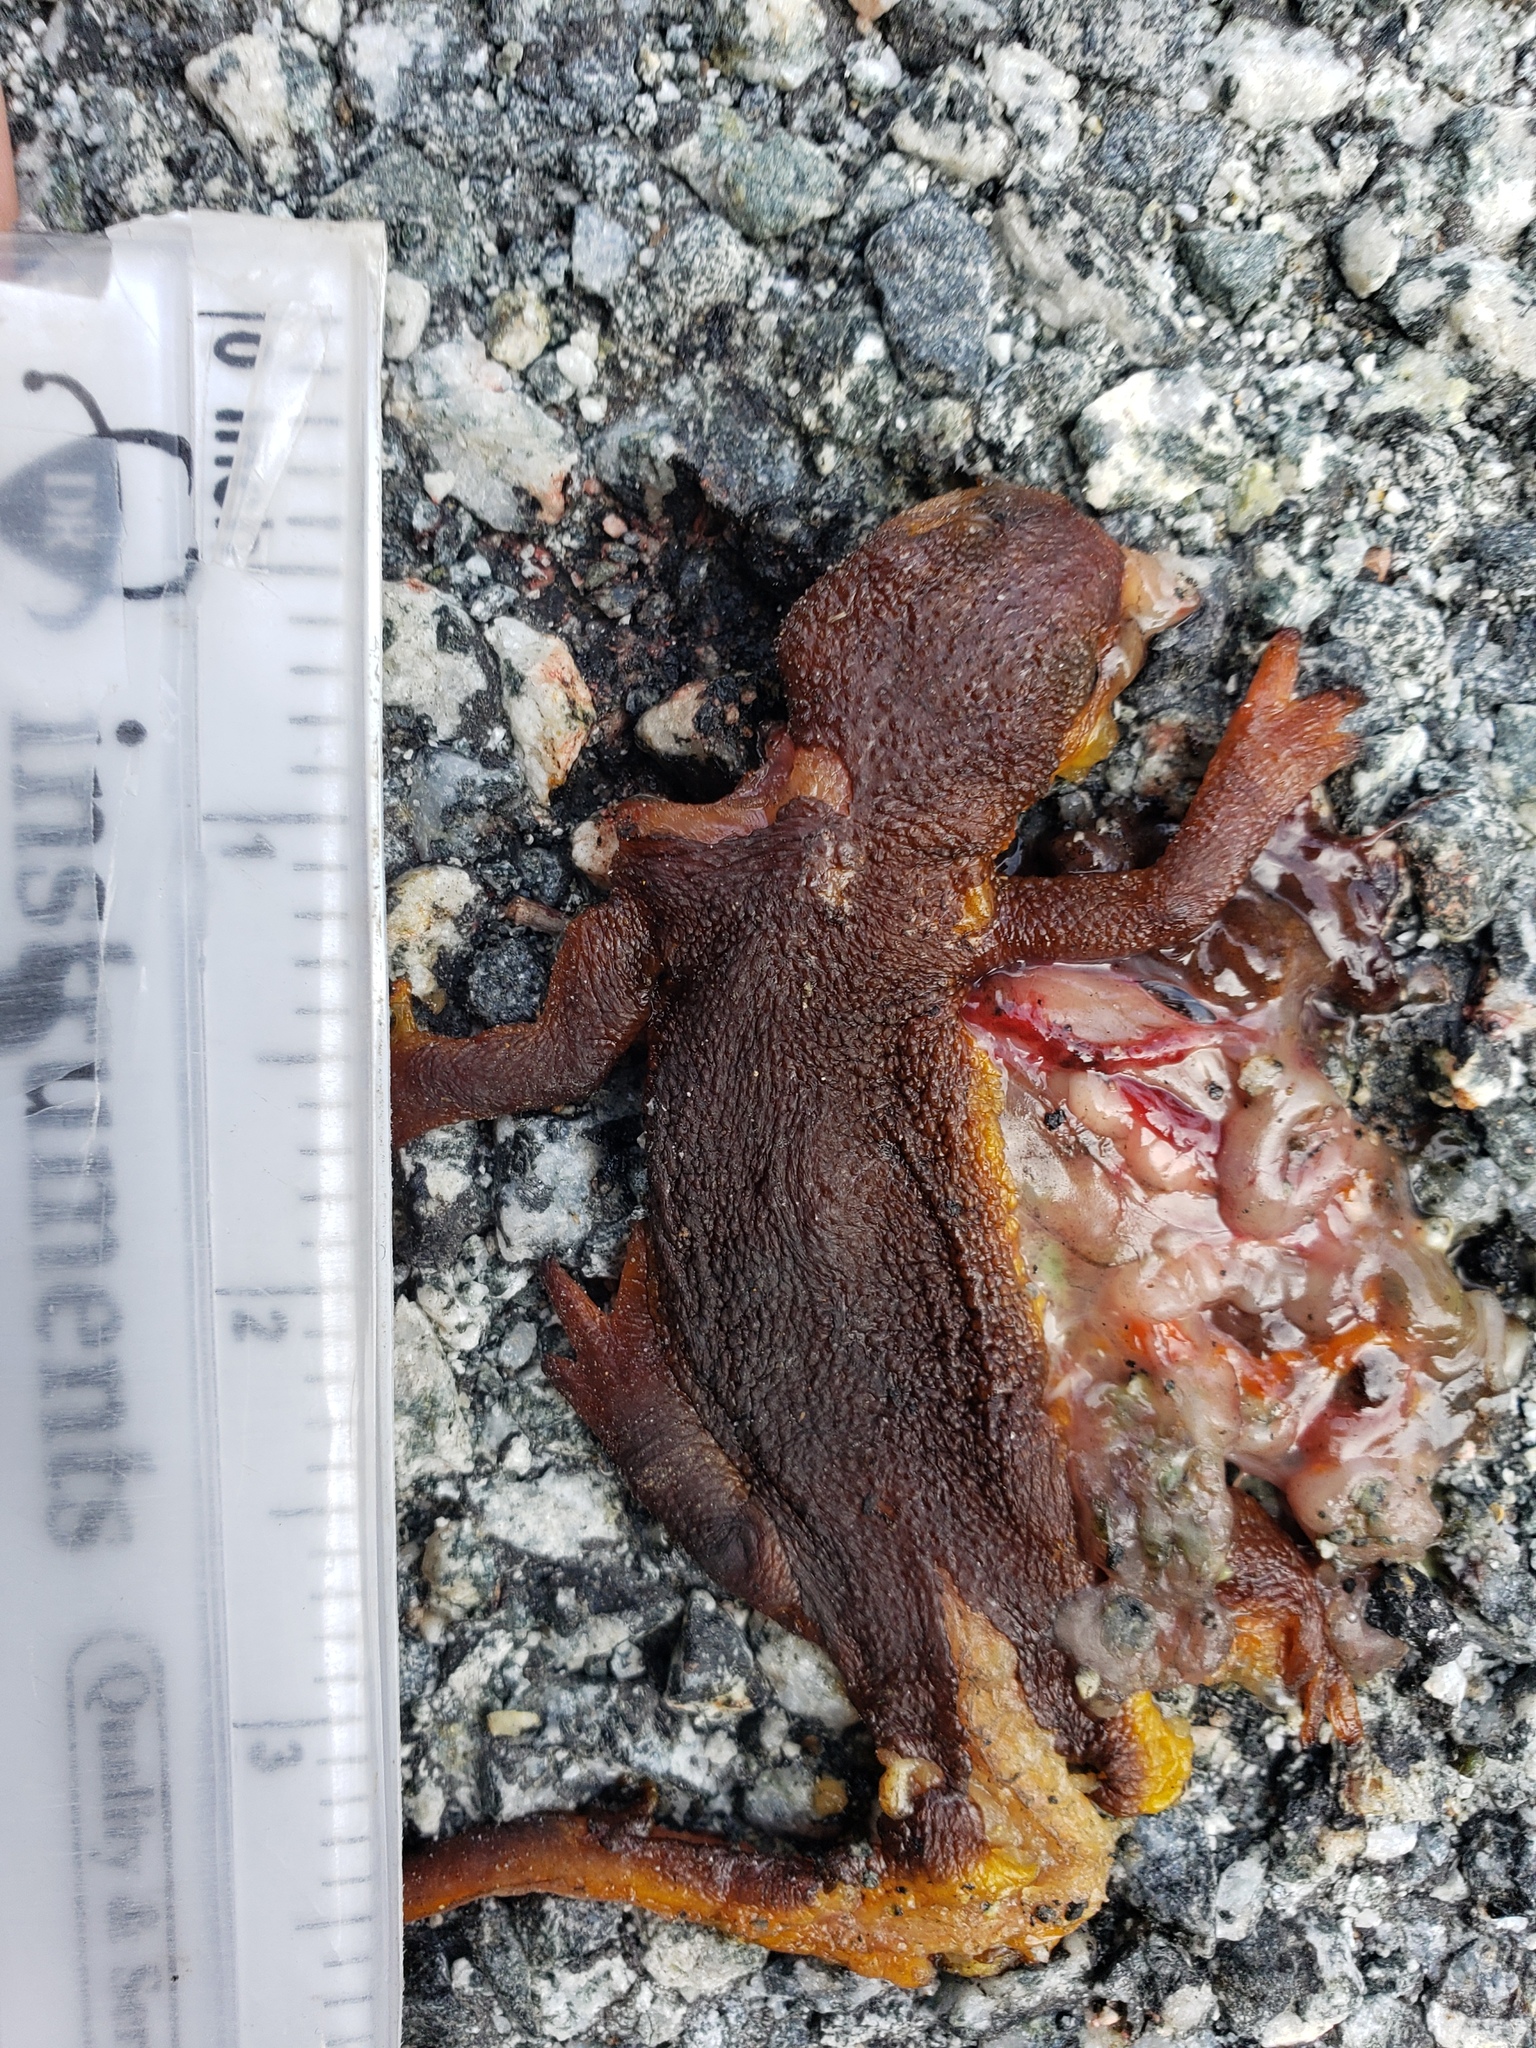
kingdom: Animalia
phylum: Chordata
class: Amphibia
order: Caudata
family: Salamandridae
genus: Taricha
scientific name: Taricha
